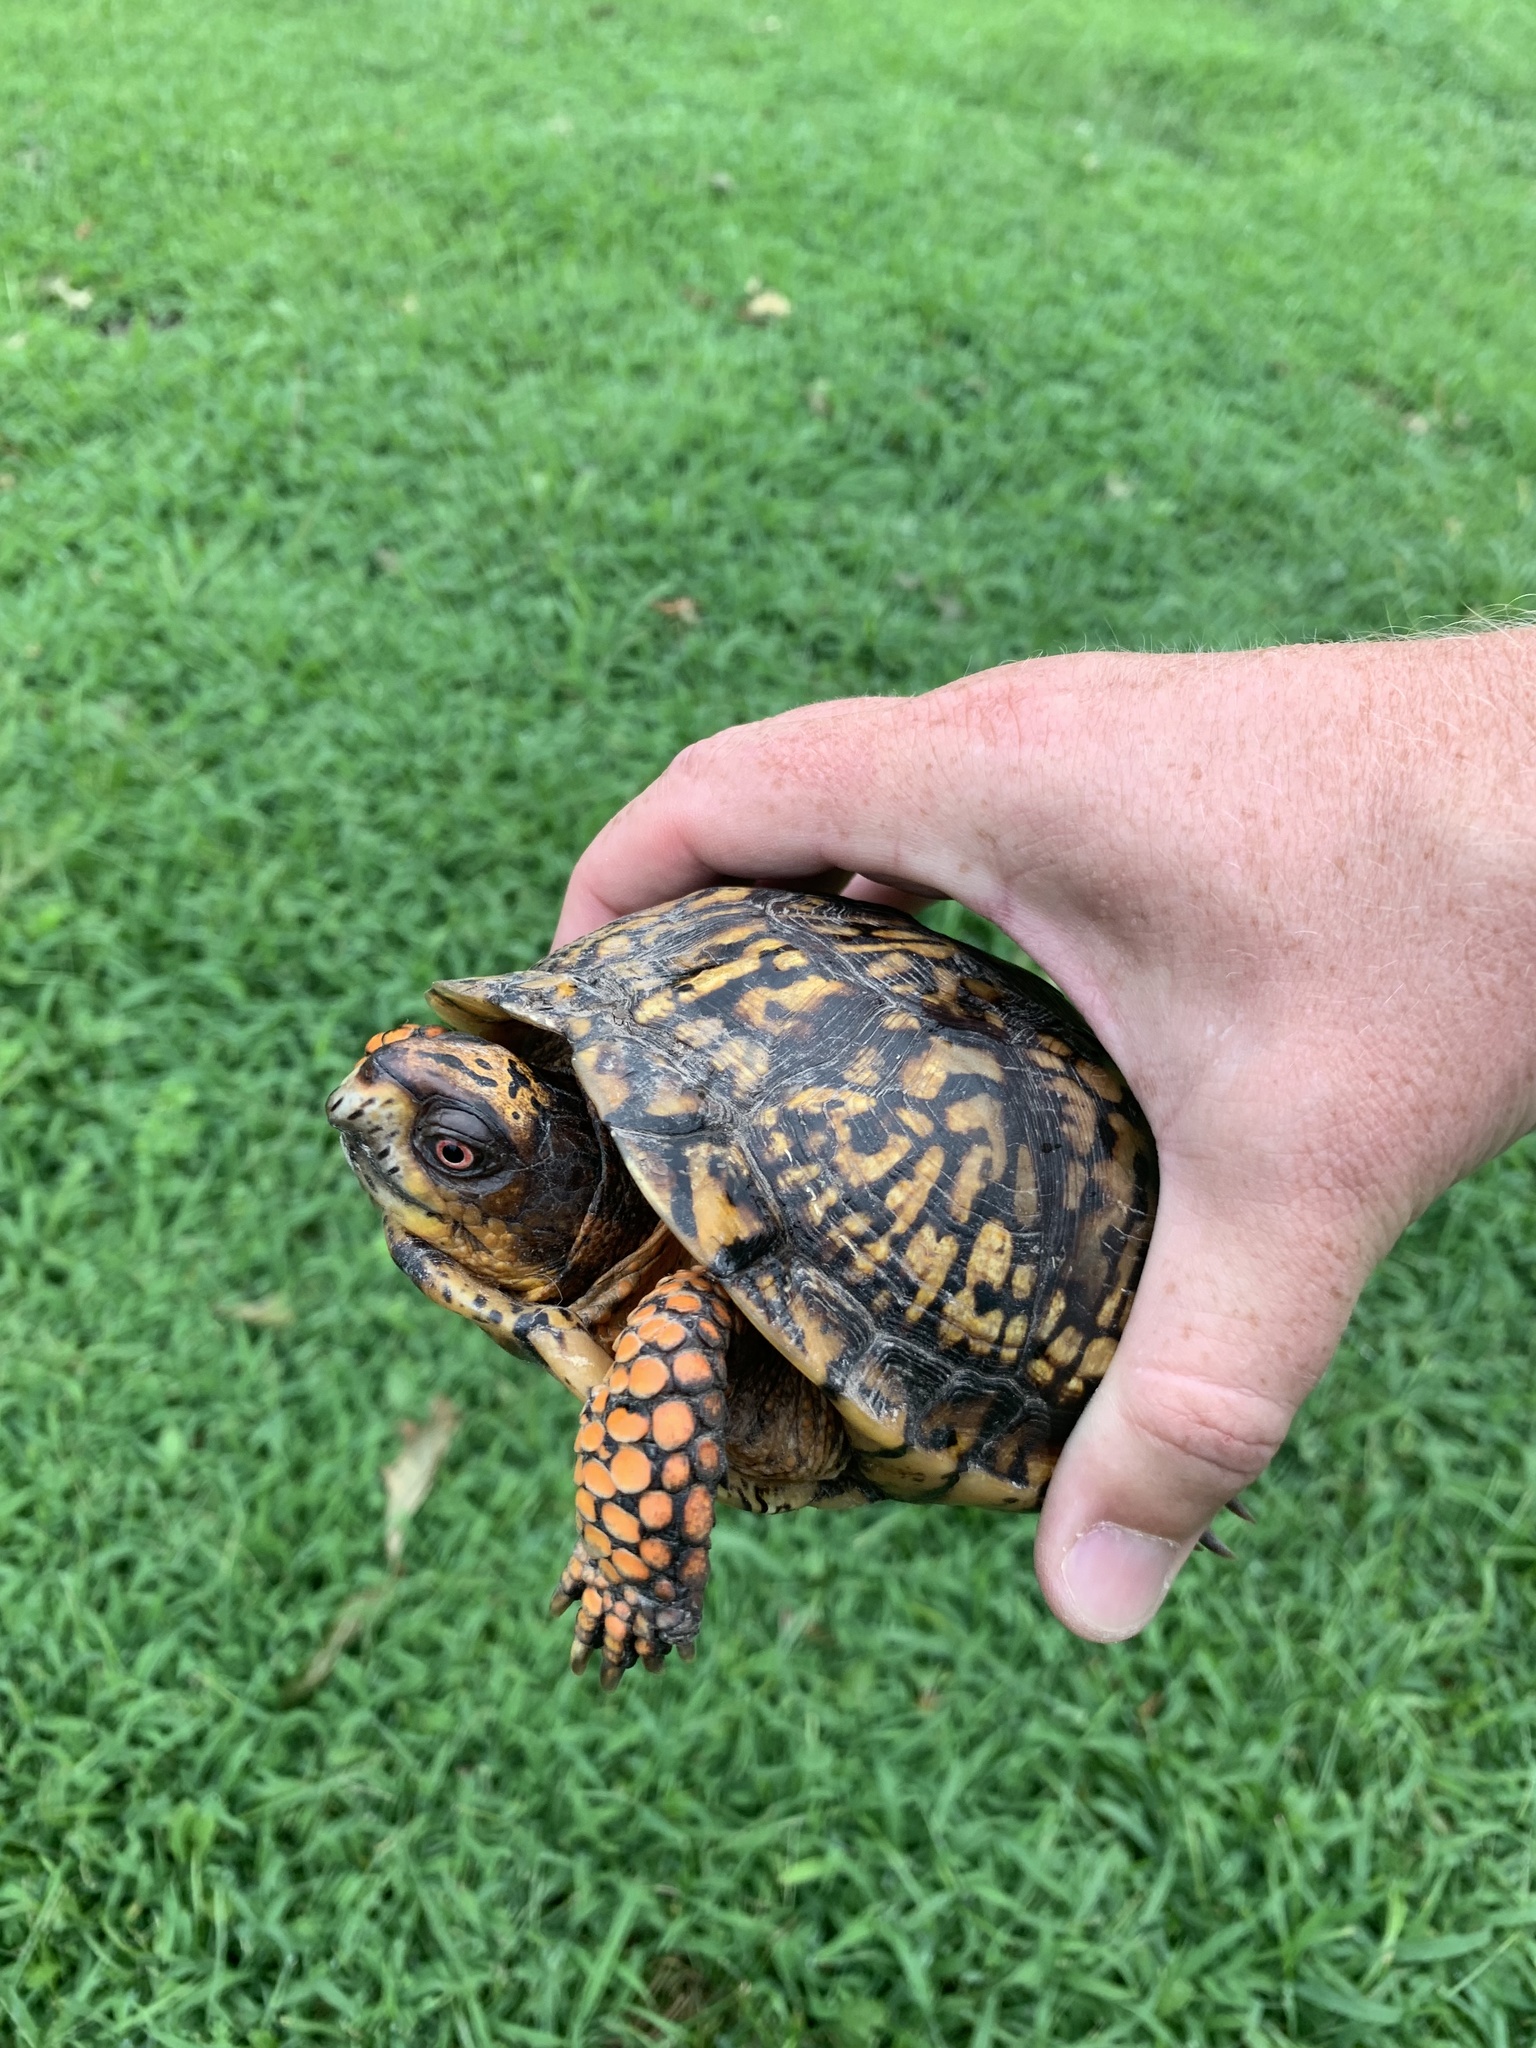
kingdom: Animalia
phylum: Chordata
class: Testudines
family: Emydidae
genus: Terrapene
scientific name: Terrapene carolina
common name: Common box turtle
